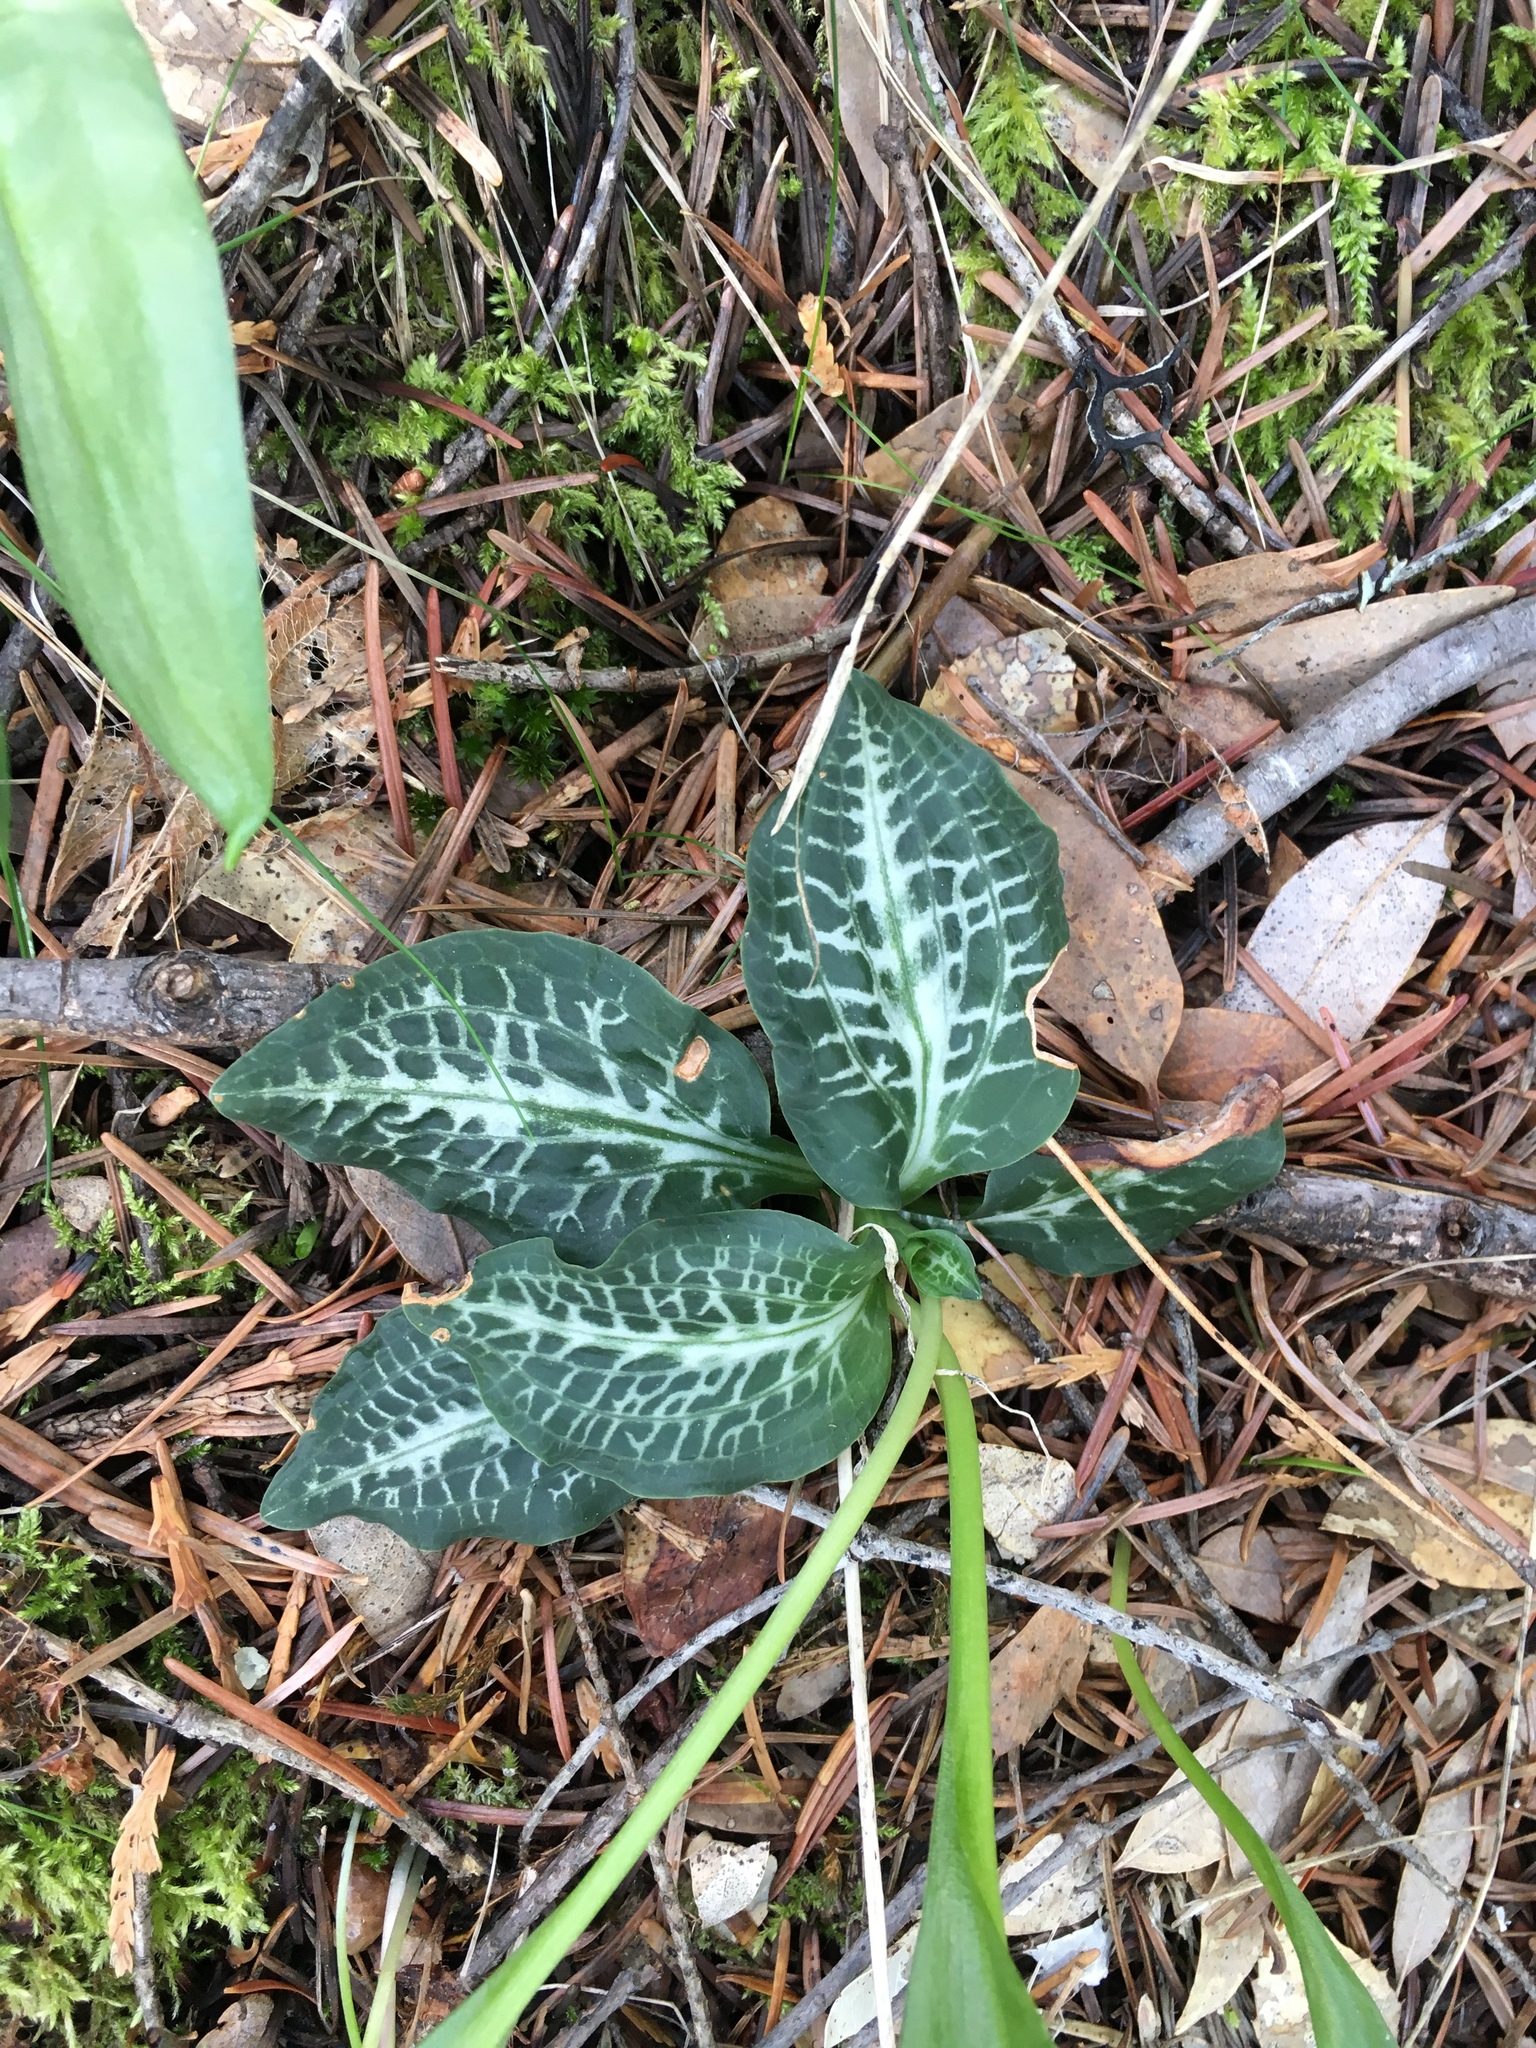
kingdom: Plantae
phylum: Tracheophyta
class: Liliopsida
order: Asparagales
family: Orchidaceae
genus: Goodyera
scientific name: Goodyera oblongifolia
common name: Giant rattlesnake-plantain
